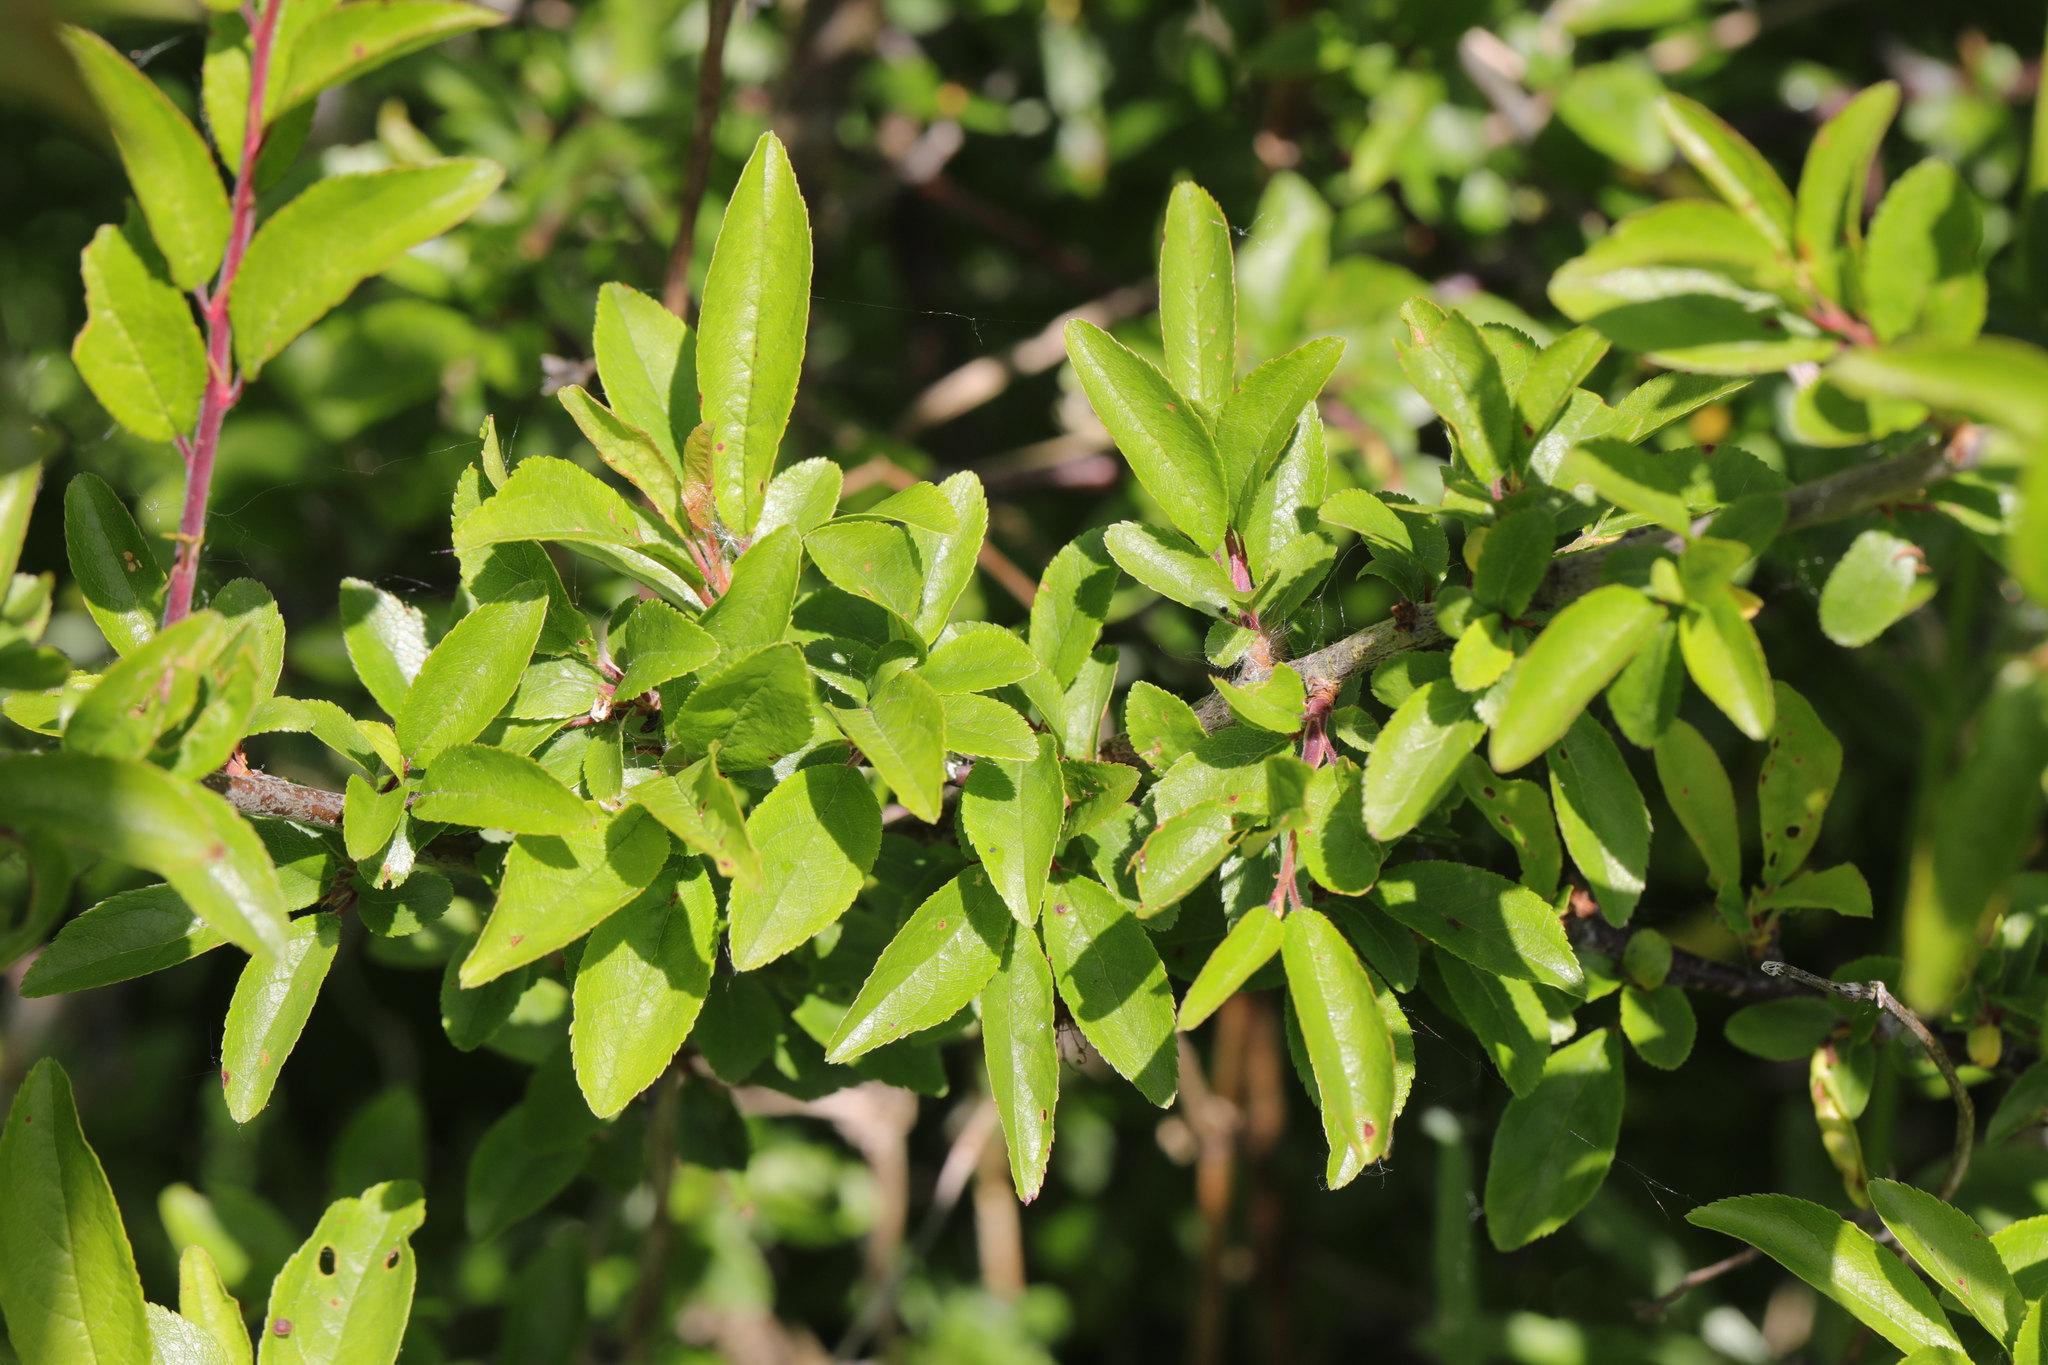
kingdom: Plantae
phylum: Tracheophyta
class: Magnoliopsida
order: Rosales
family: Rosaceae
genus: Prunus
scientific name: Prunus spinosa
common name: Blackthorn
